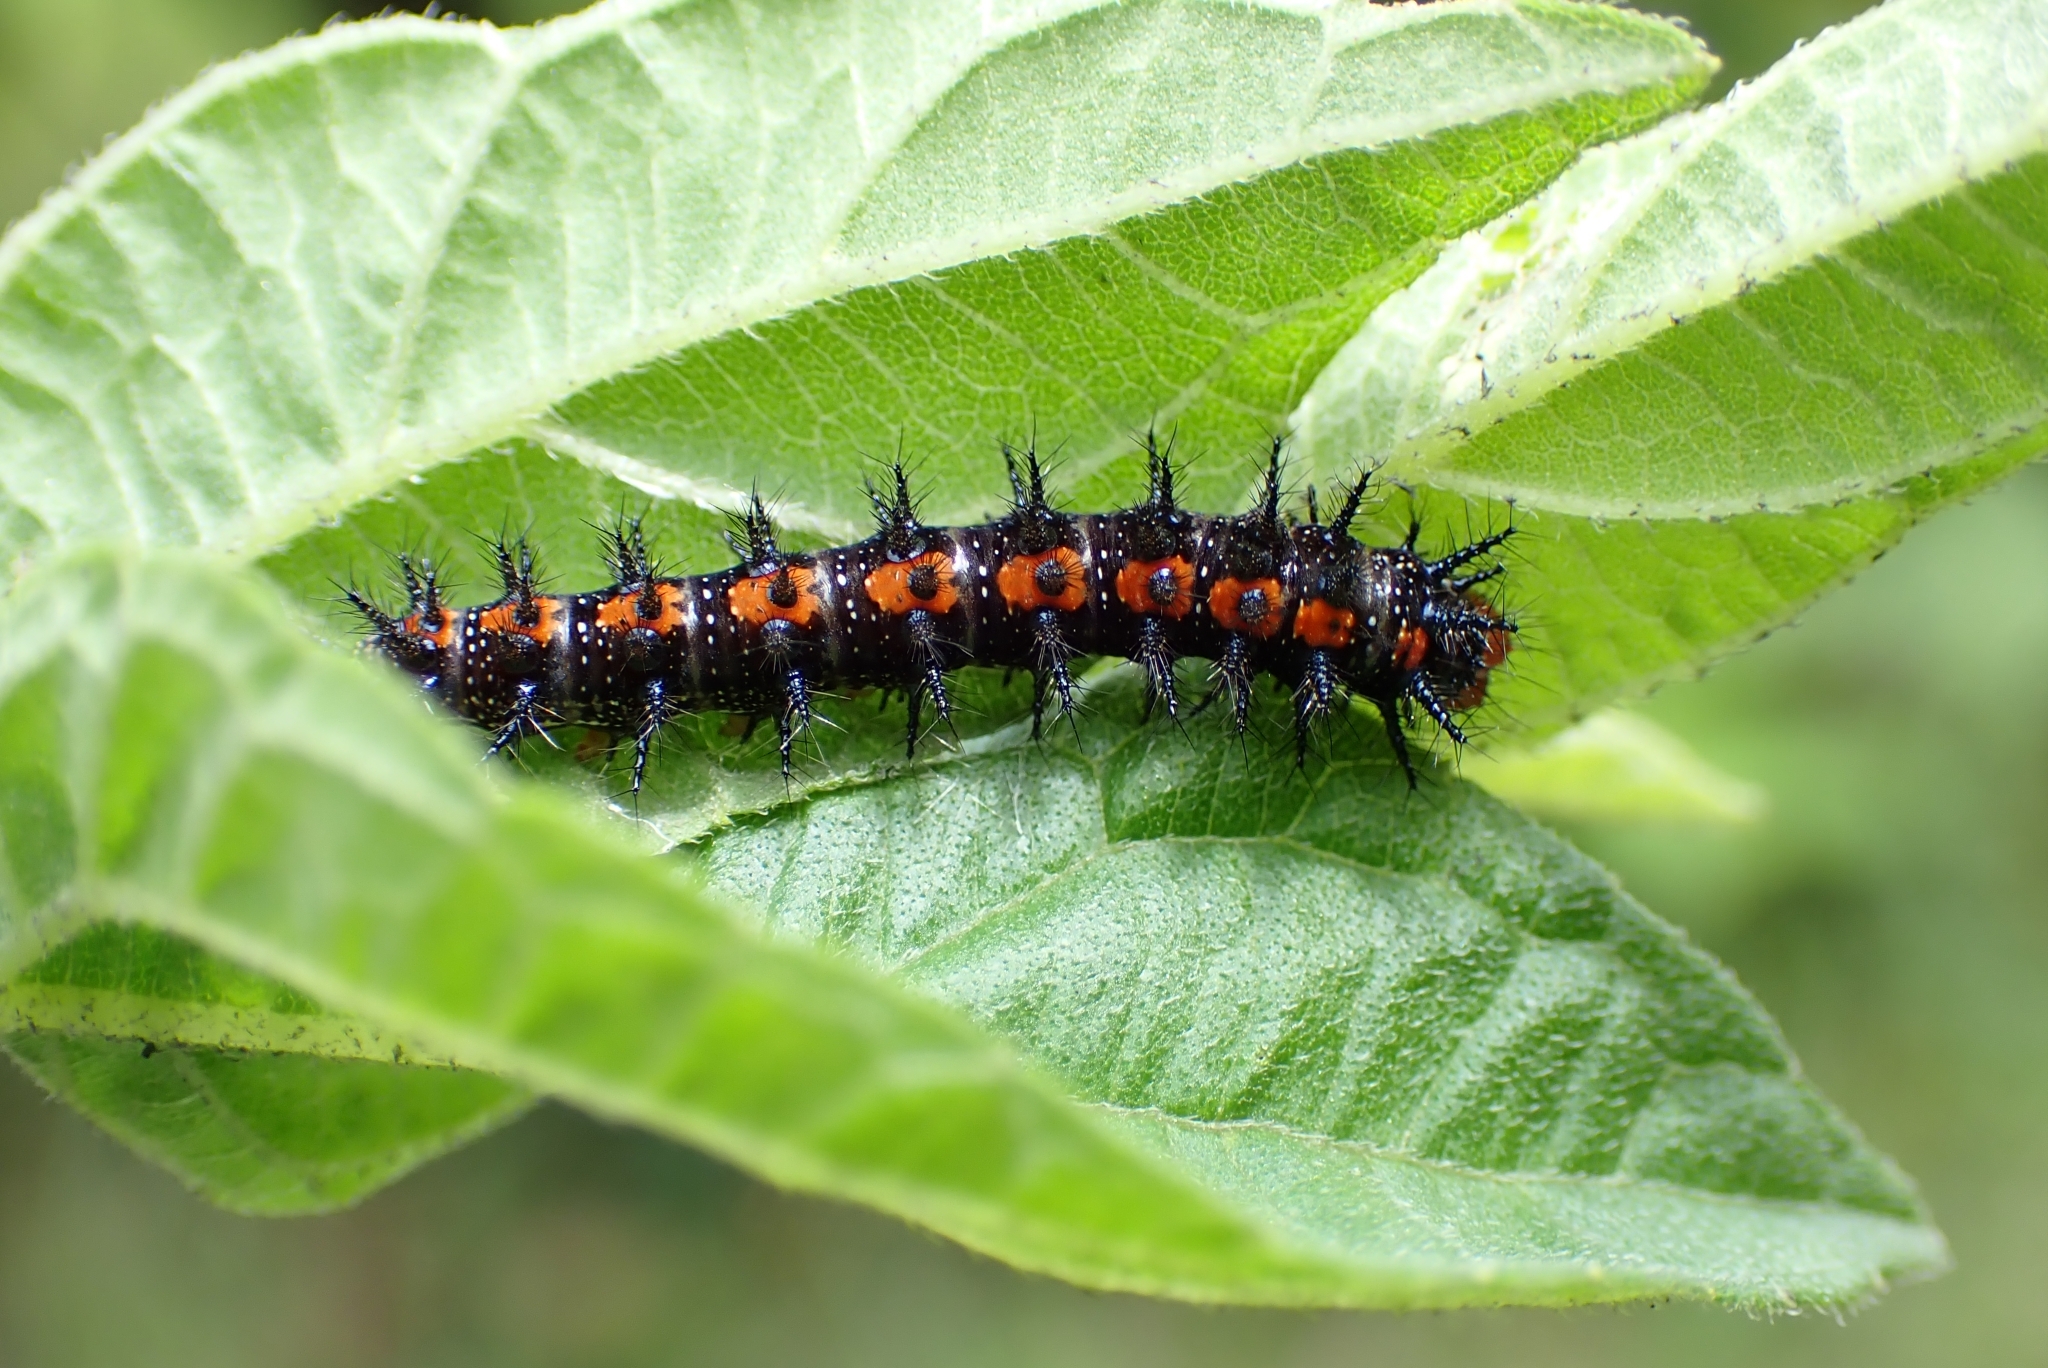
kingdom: Animalia
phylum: Arthropoda
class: Insecta
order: Lepidoptera
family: Nymphalidae
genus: Chlosyne
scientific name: Chlosyne lacinia
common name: Bordered patch
